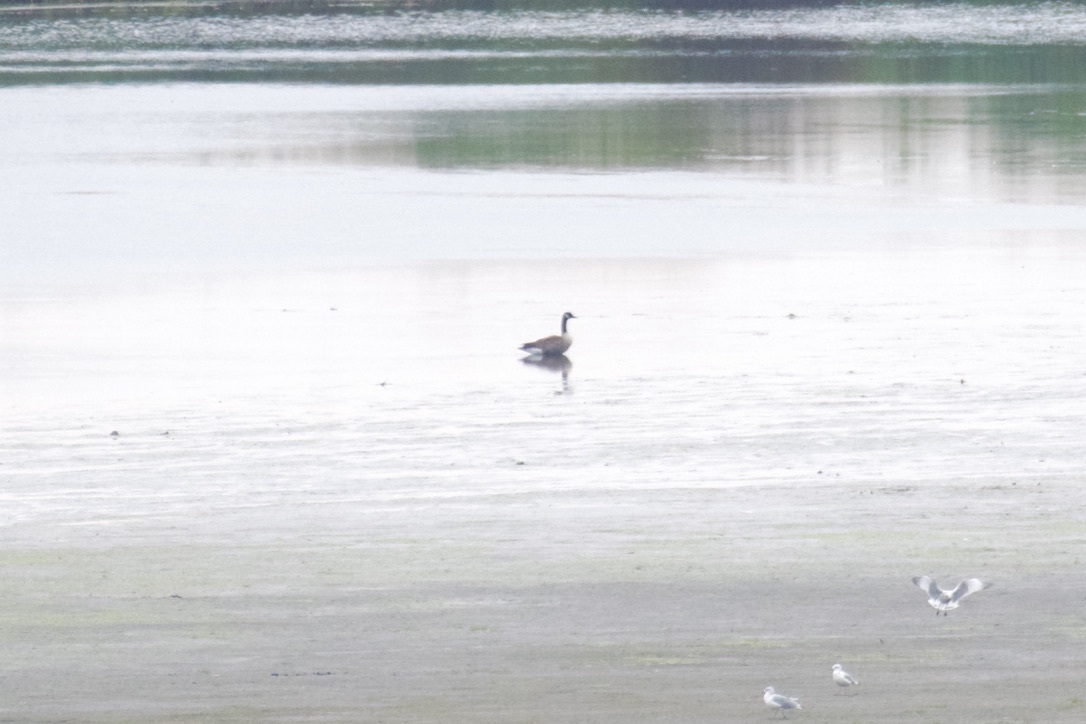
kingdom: Animalia
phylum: Chordata
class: Aves
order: Anseriformes
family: Anatidae
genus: Branta
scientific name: Branta canadensis
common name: Canada goose
